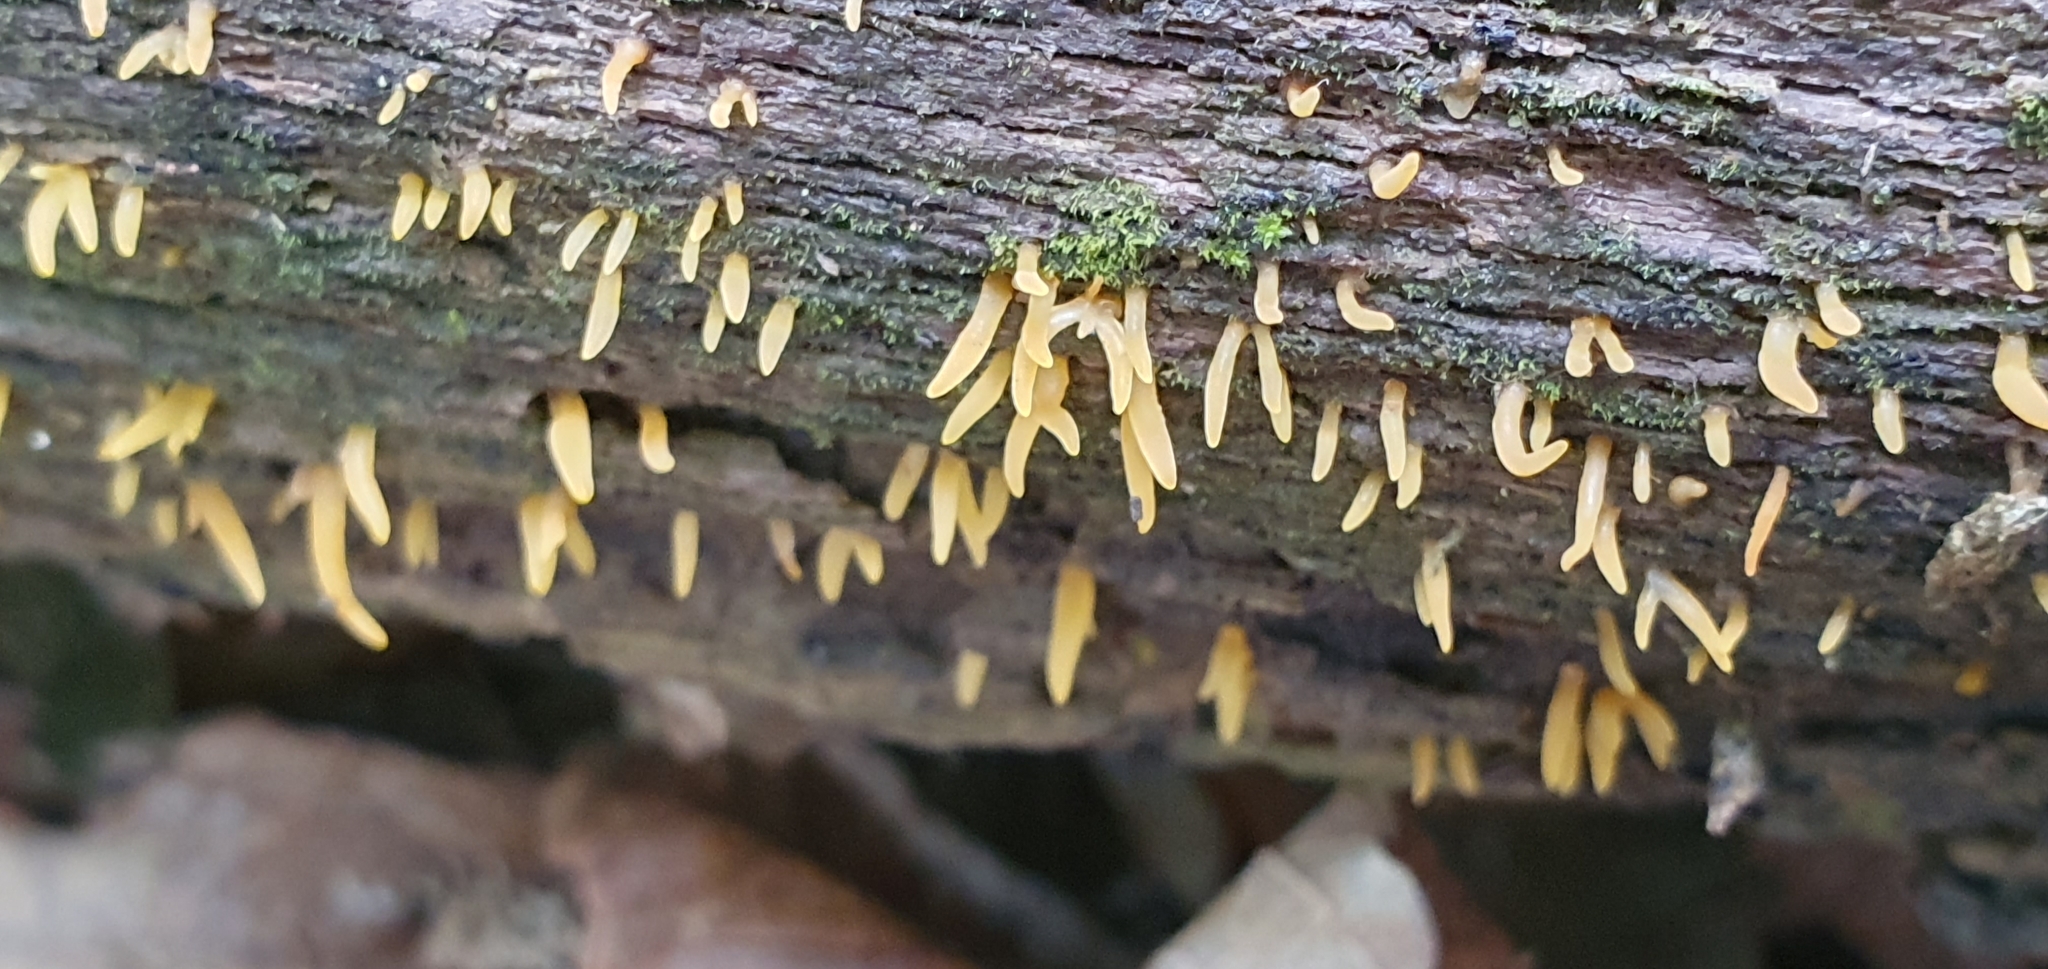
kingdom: Fungi
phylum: Basidiomycota
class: Dacrymycetes
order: Dacrymycetales
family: Dacrymycetaceae
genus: Calocera
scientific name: Calocera cornea
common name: Small stagshorn
